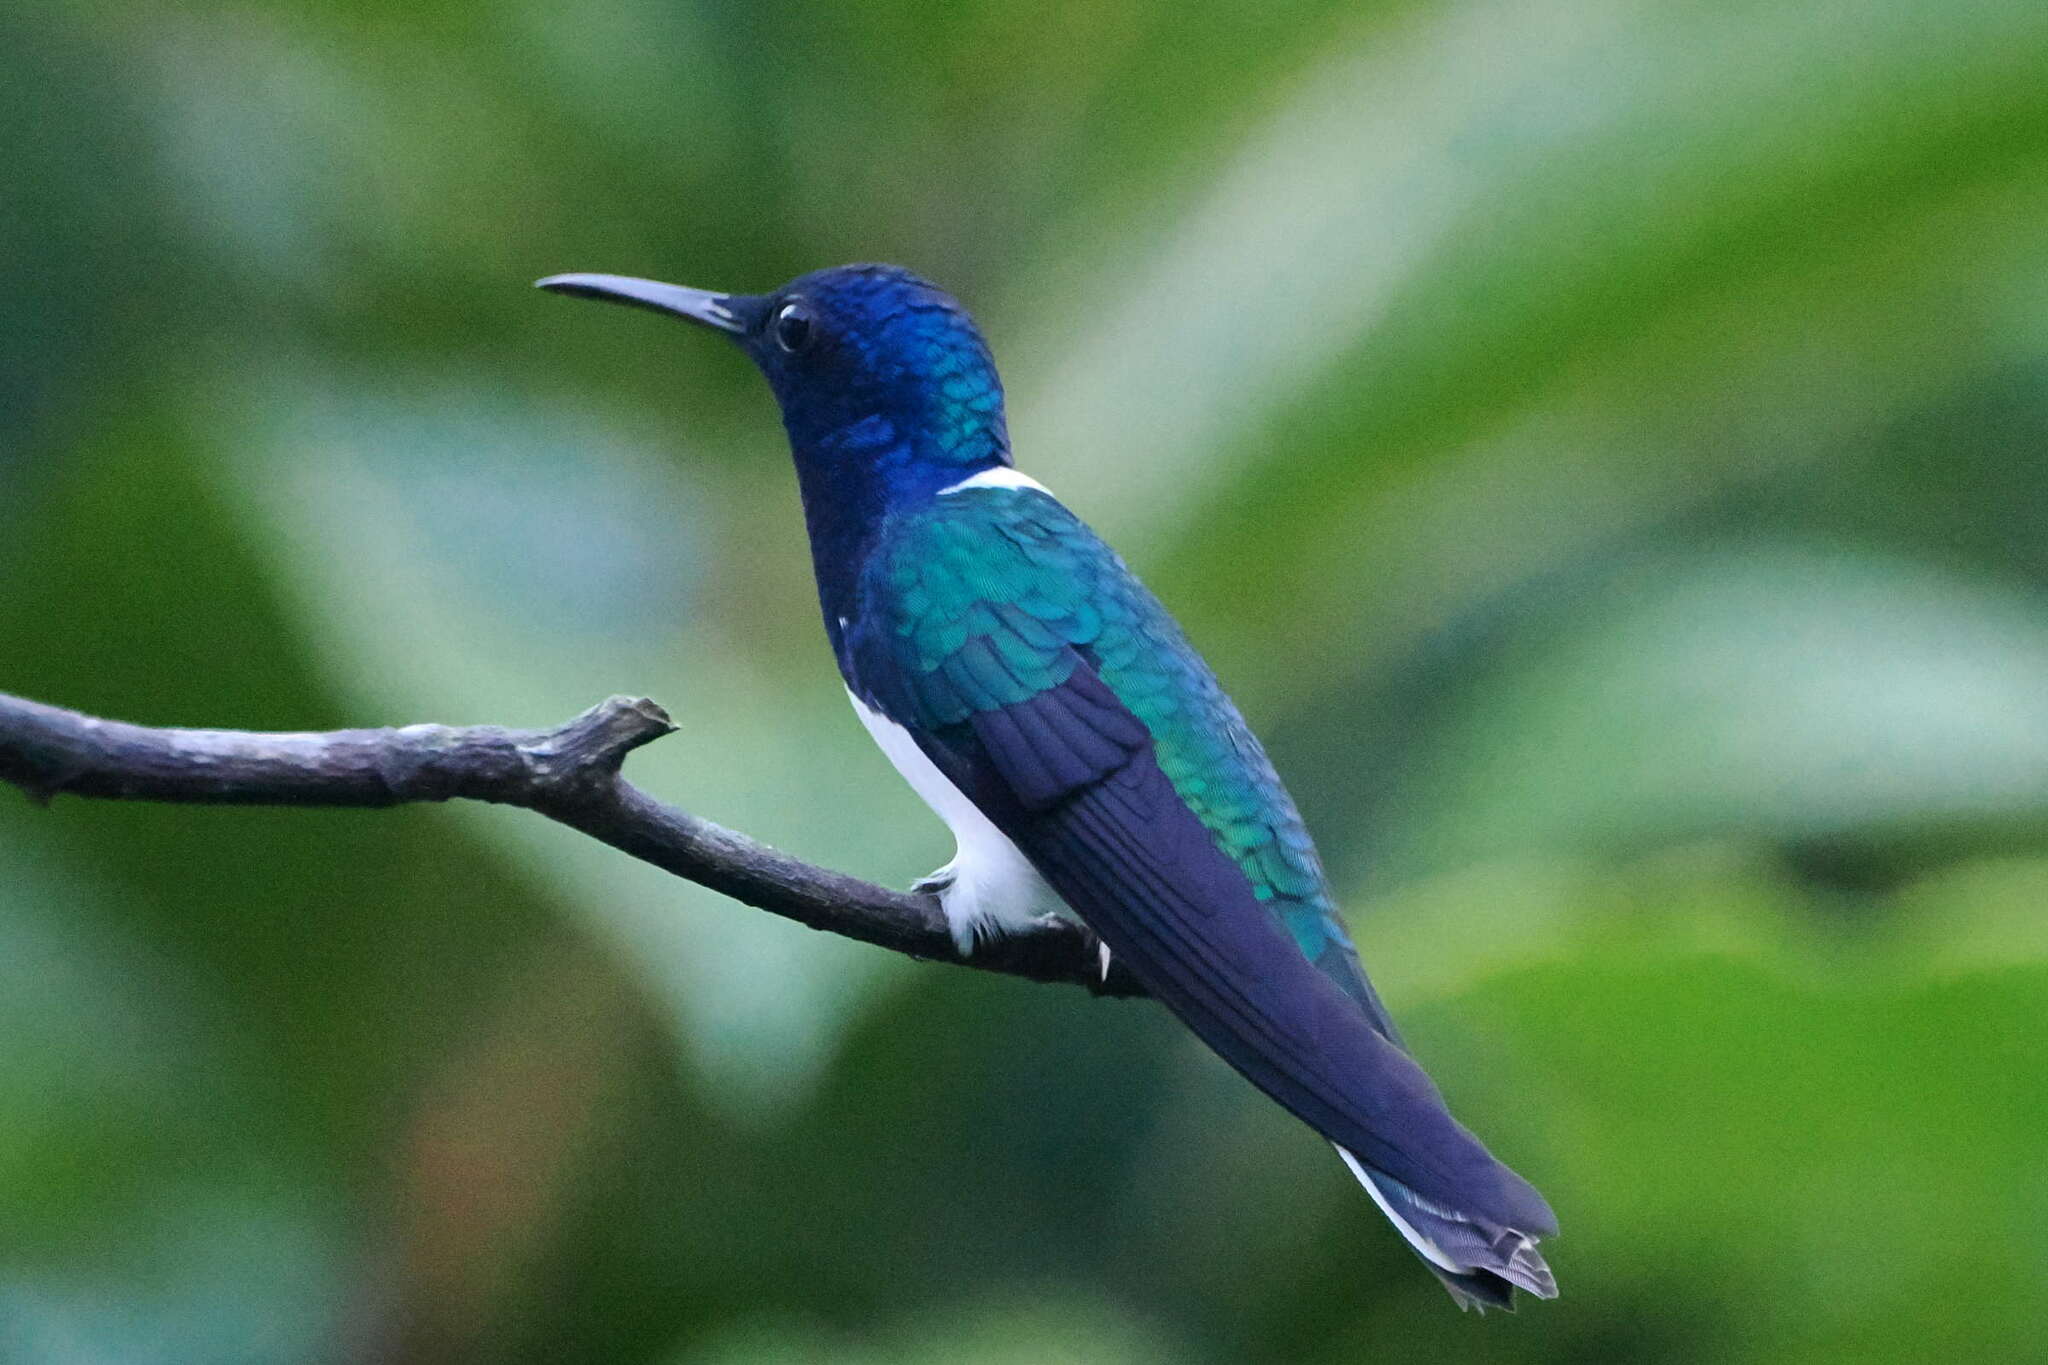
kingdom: Animalia
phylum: Chordata
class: Aves
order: Apodiformes
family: Trochilidae
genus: Florisuga
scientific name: Florisuga mellivora
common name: White-necked jacobin
